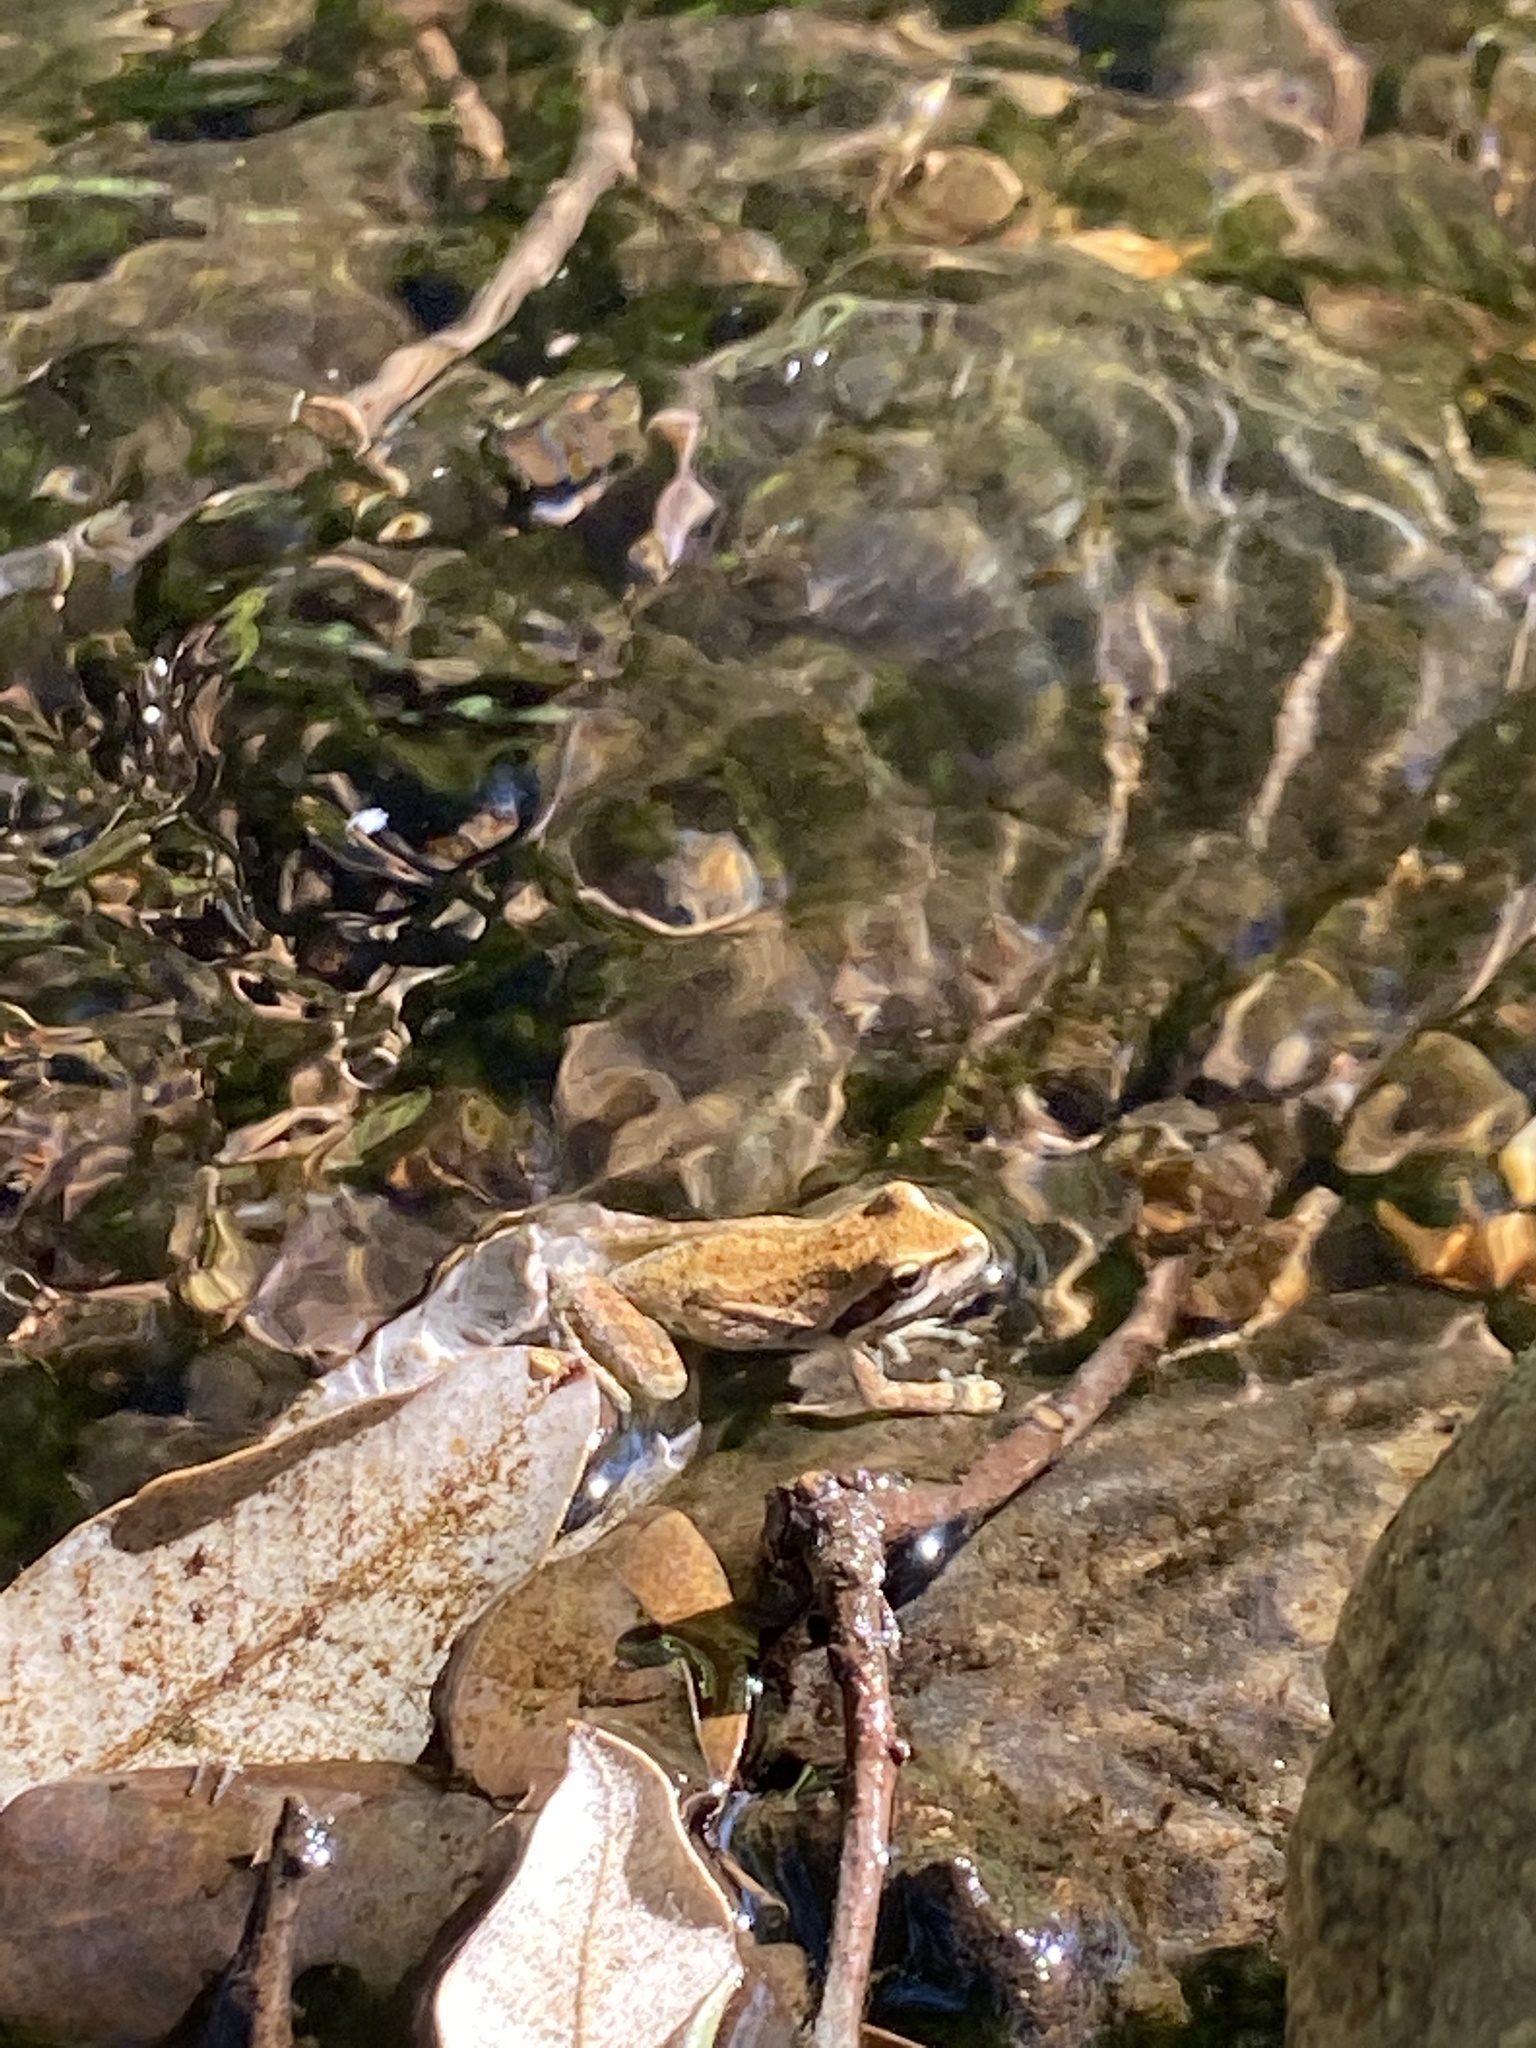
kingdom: Animalia
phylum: Chordata
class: Amphibia
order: Anura
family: Hylidae
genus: Pseudacris
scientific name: Pseudacris regilla
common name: Pacific chorus frog
